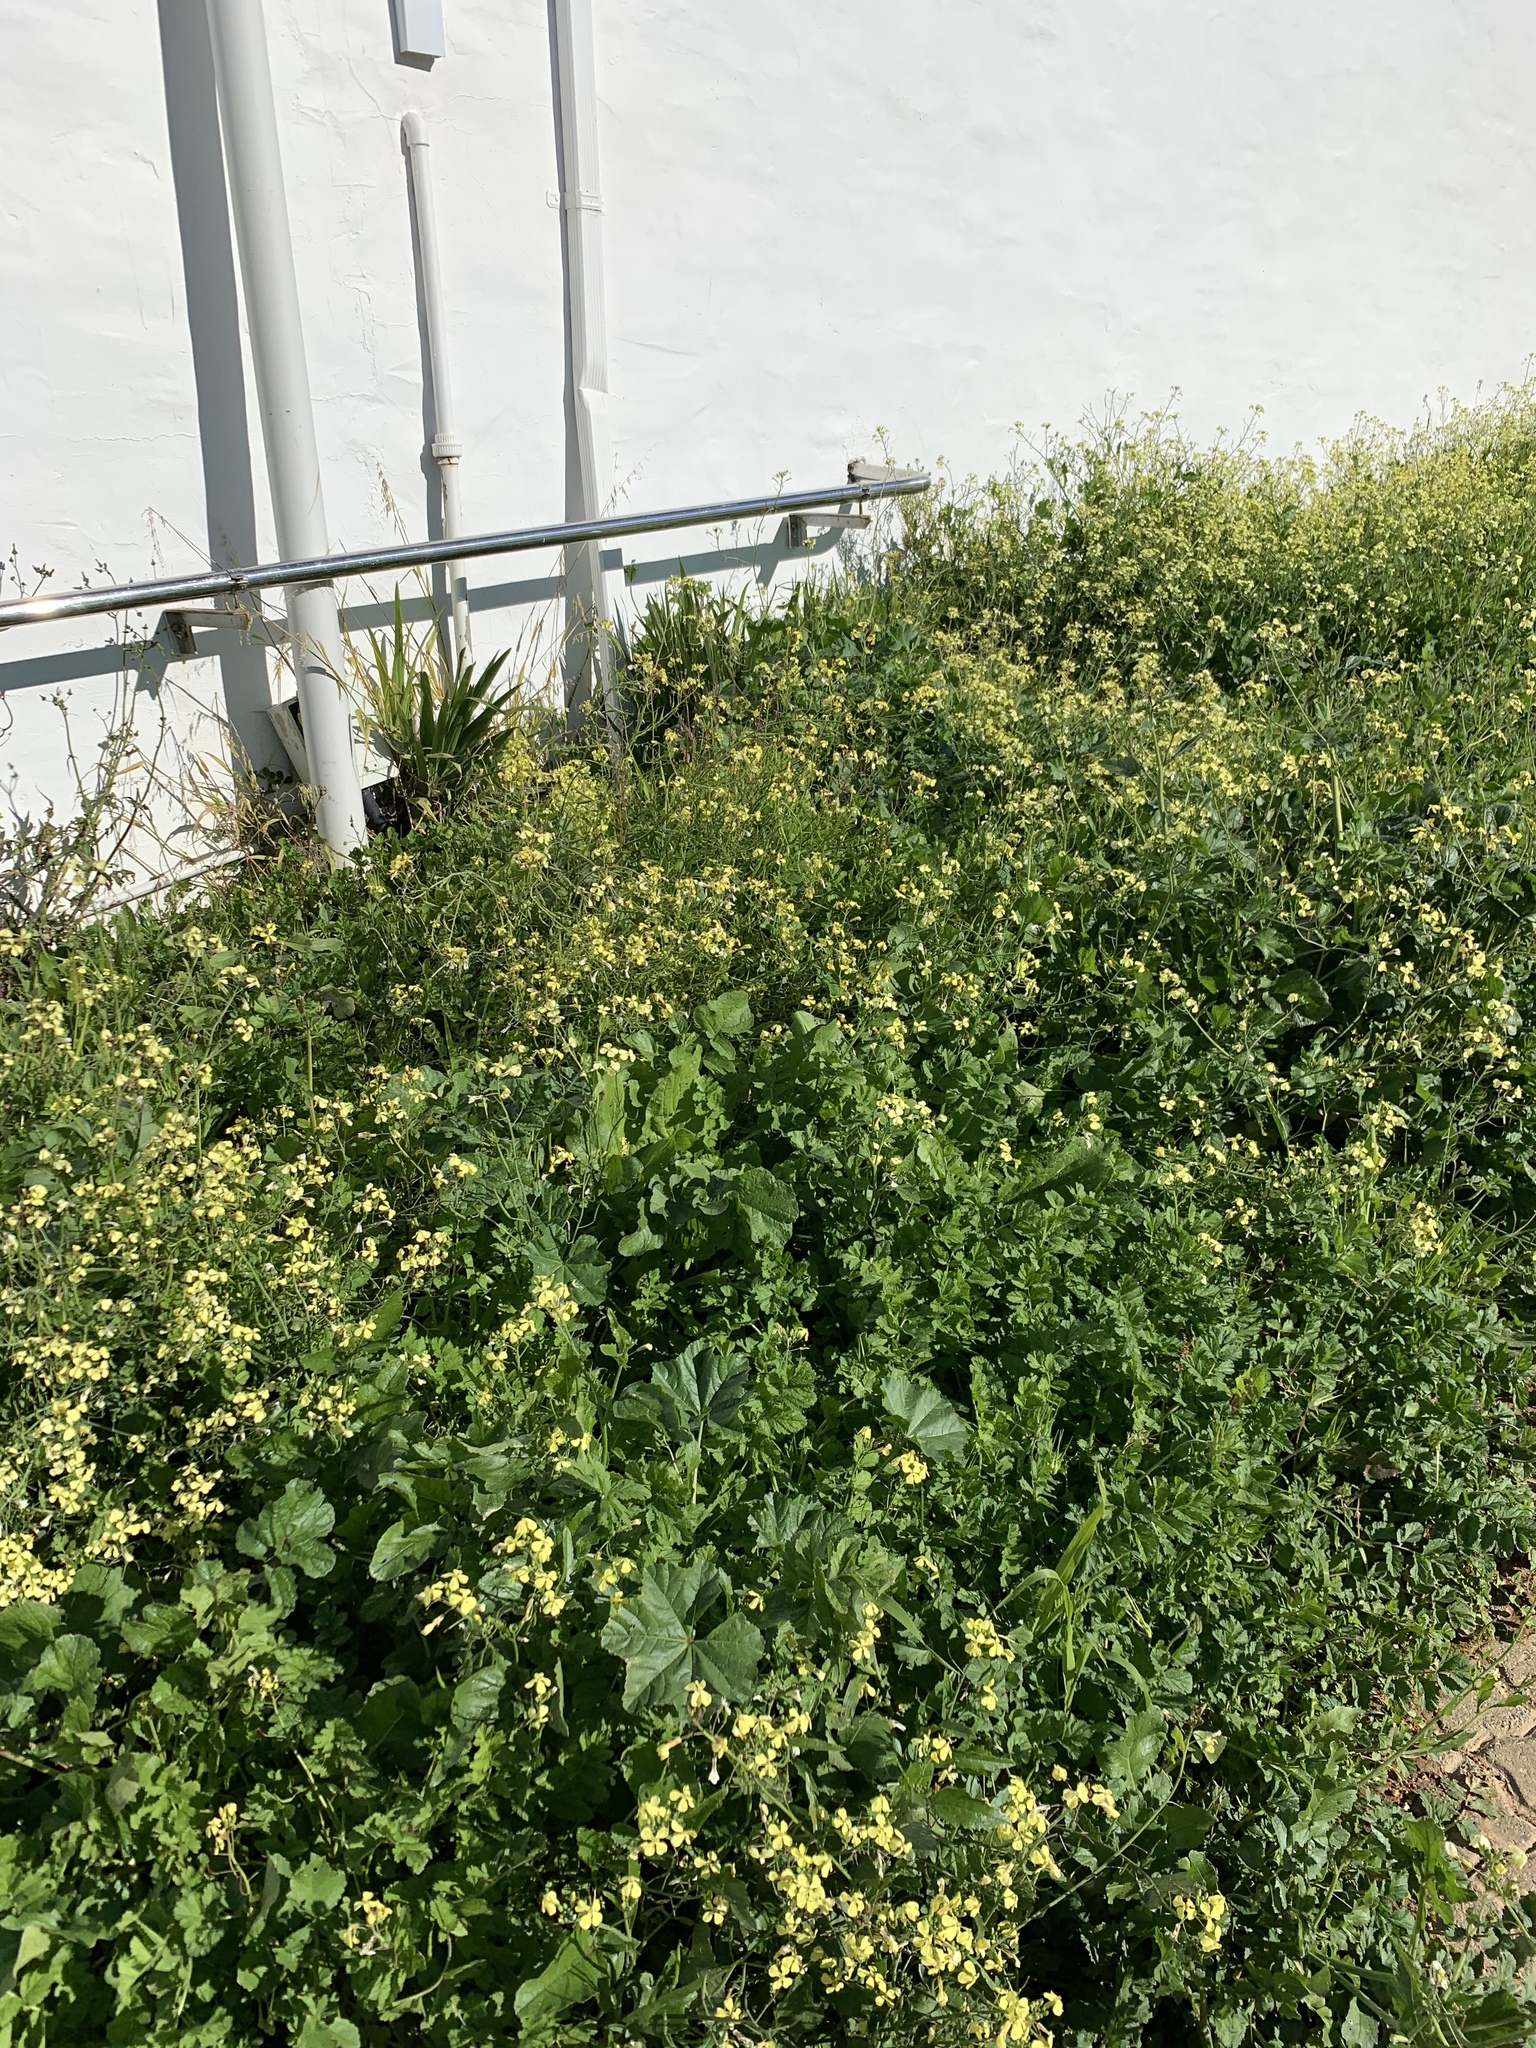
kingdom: Plantae
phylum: Tracheophyta
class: Magnoliopsida
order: Brassicales
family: Brassicaceae
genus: Raphanus
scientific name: Raphanus raphanistrum
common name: Wild radish
